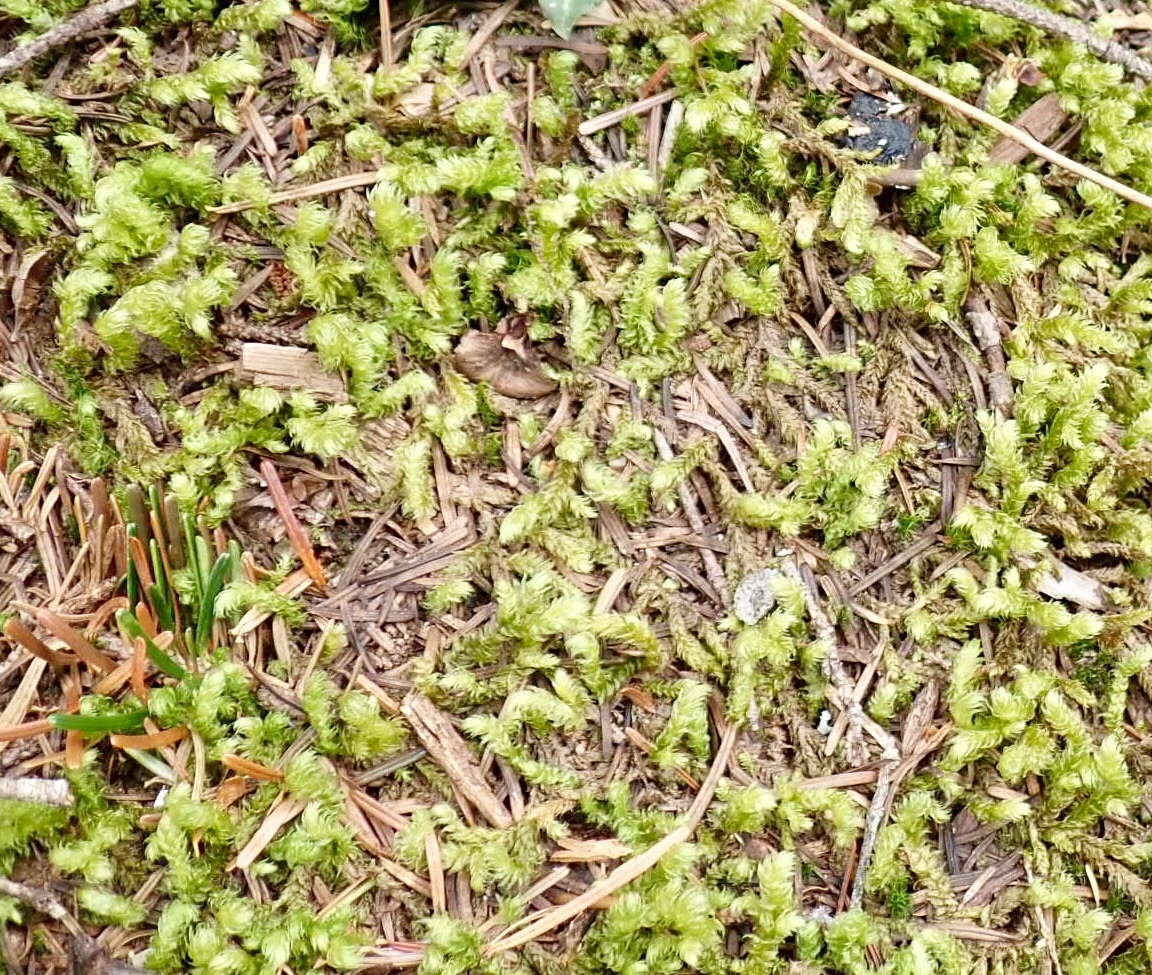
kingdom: Plantae
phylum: Bryophyta
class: Bryopsida
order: Hypnales
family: Hylocomiaceae
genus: Rhytidiopsis
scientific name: Rhytidiopsis robusta
